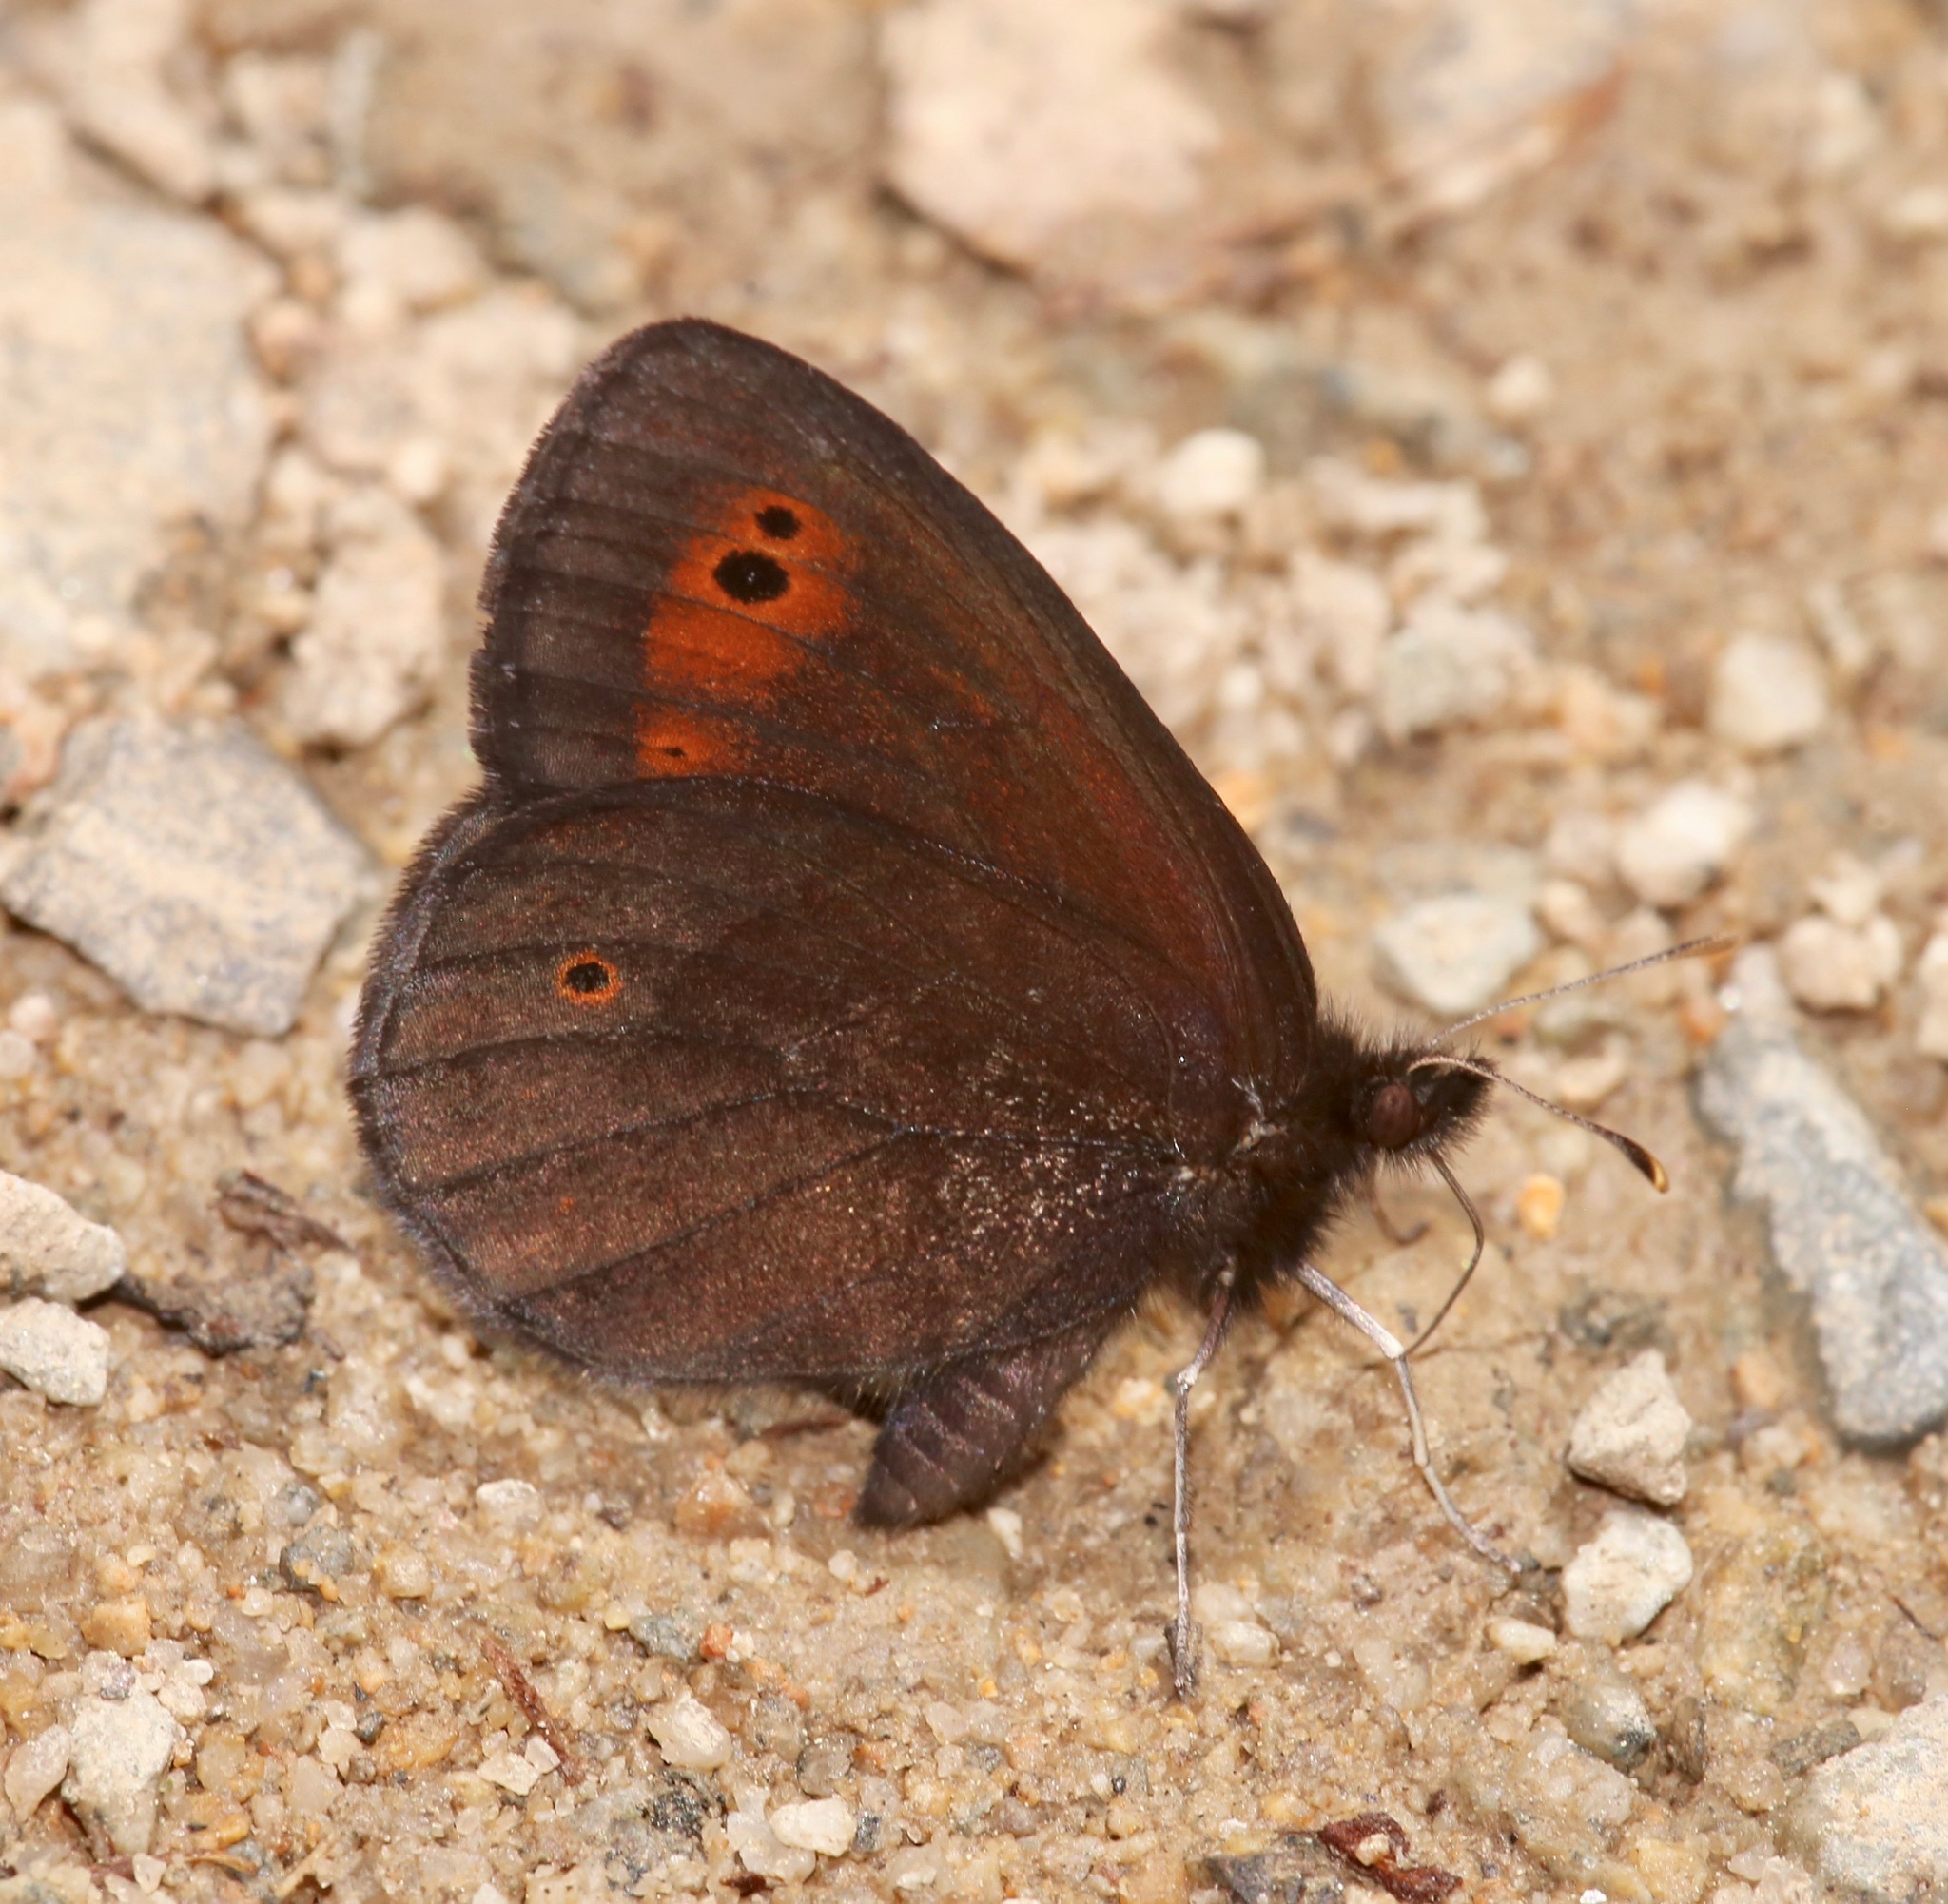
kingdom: Animalia
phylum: Arthropoda
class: Insecta
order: Lepidoptera
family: Nymphalidae
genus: Erebia
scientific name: Erebia epipsodea
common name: Common alpine
